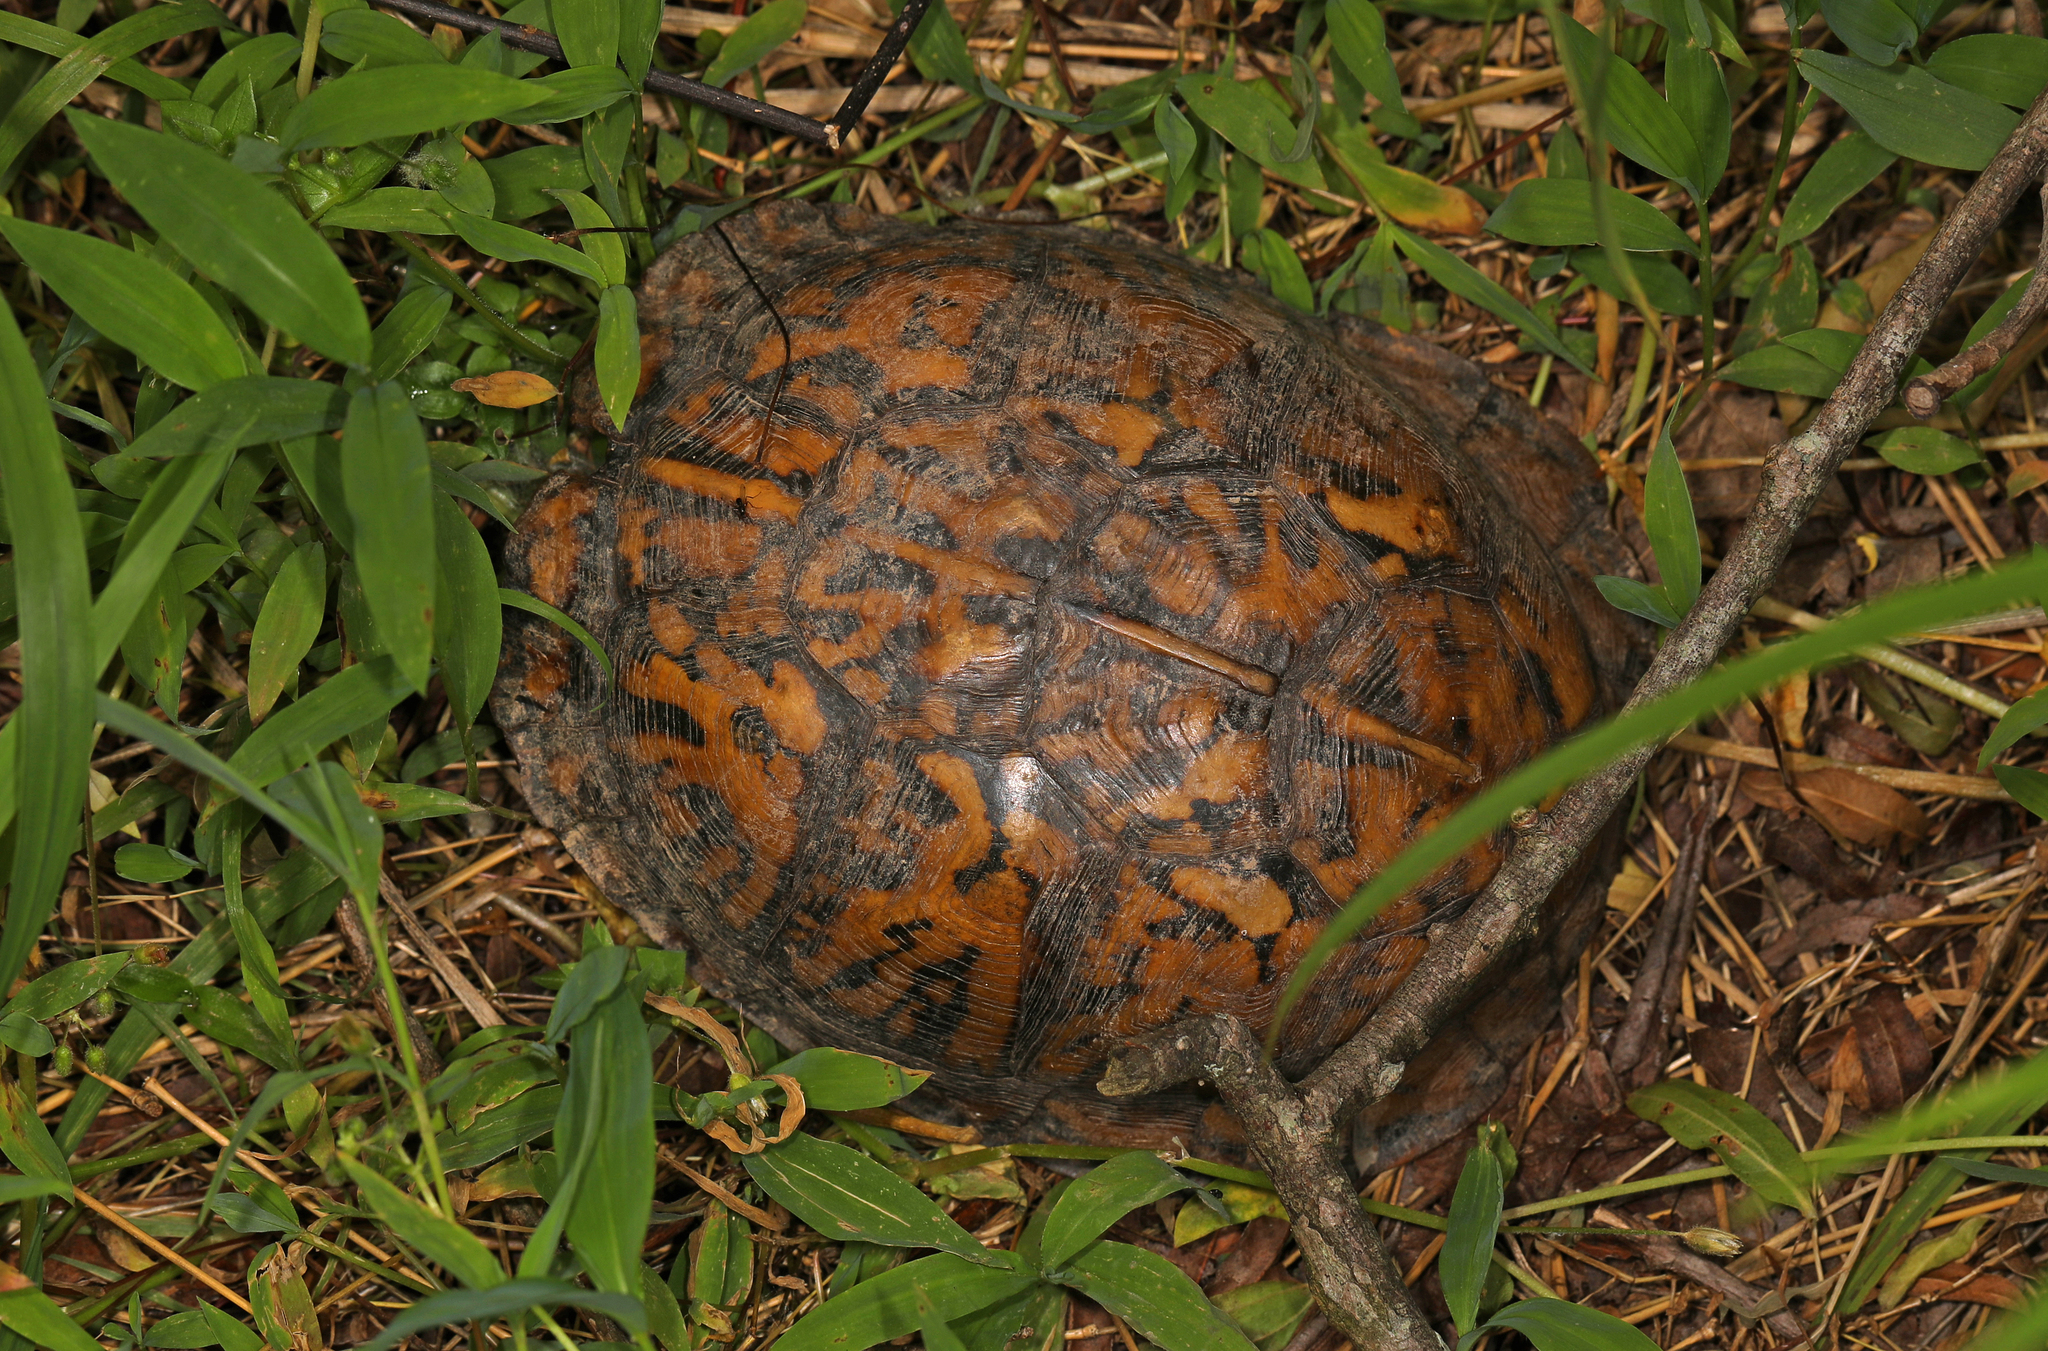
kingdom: Animalia
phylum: Chordata
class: Testudines
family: Emydidae
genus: Terrapene
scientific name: Terrapene carolina
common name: Common box turtle
